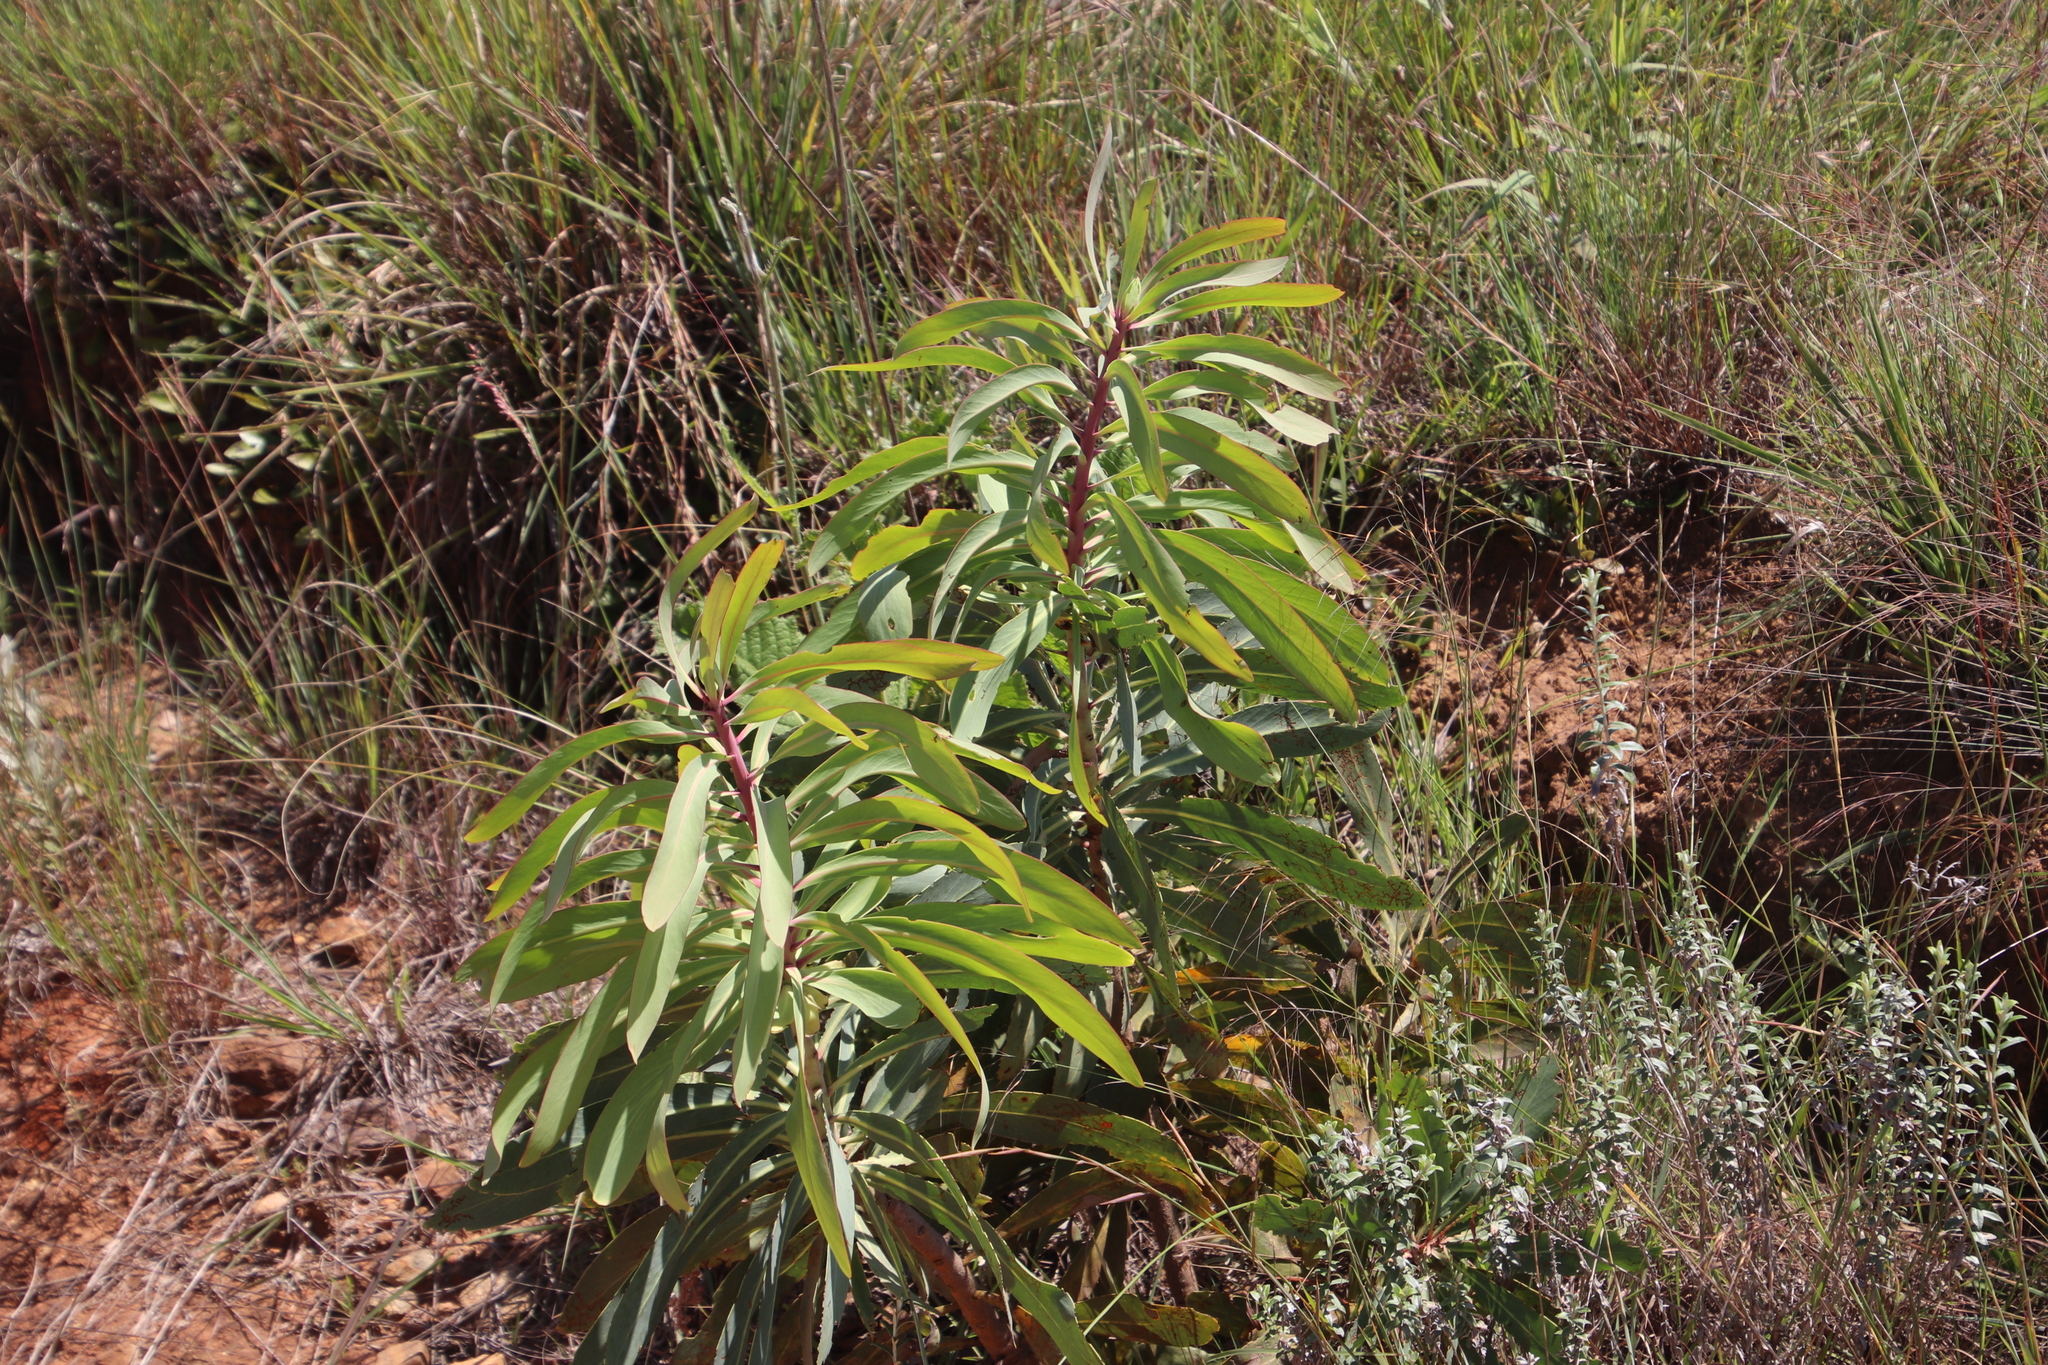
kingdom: Plantae
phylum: Tracheophyta
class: Magnoliopsida
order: Proteales
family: Proteaceae
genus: Protea
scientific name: Protea caffra
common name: Common sugarbush
